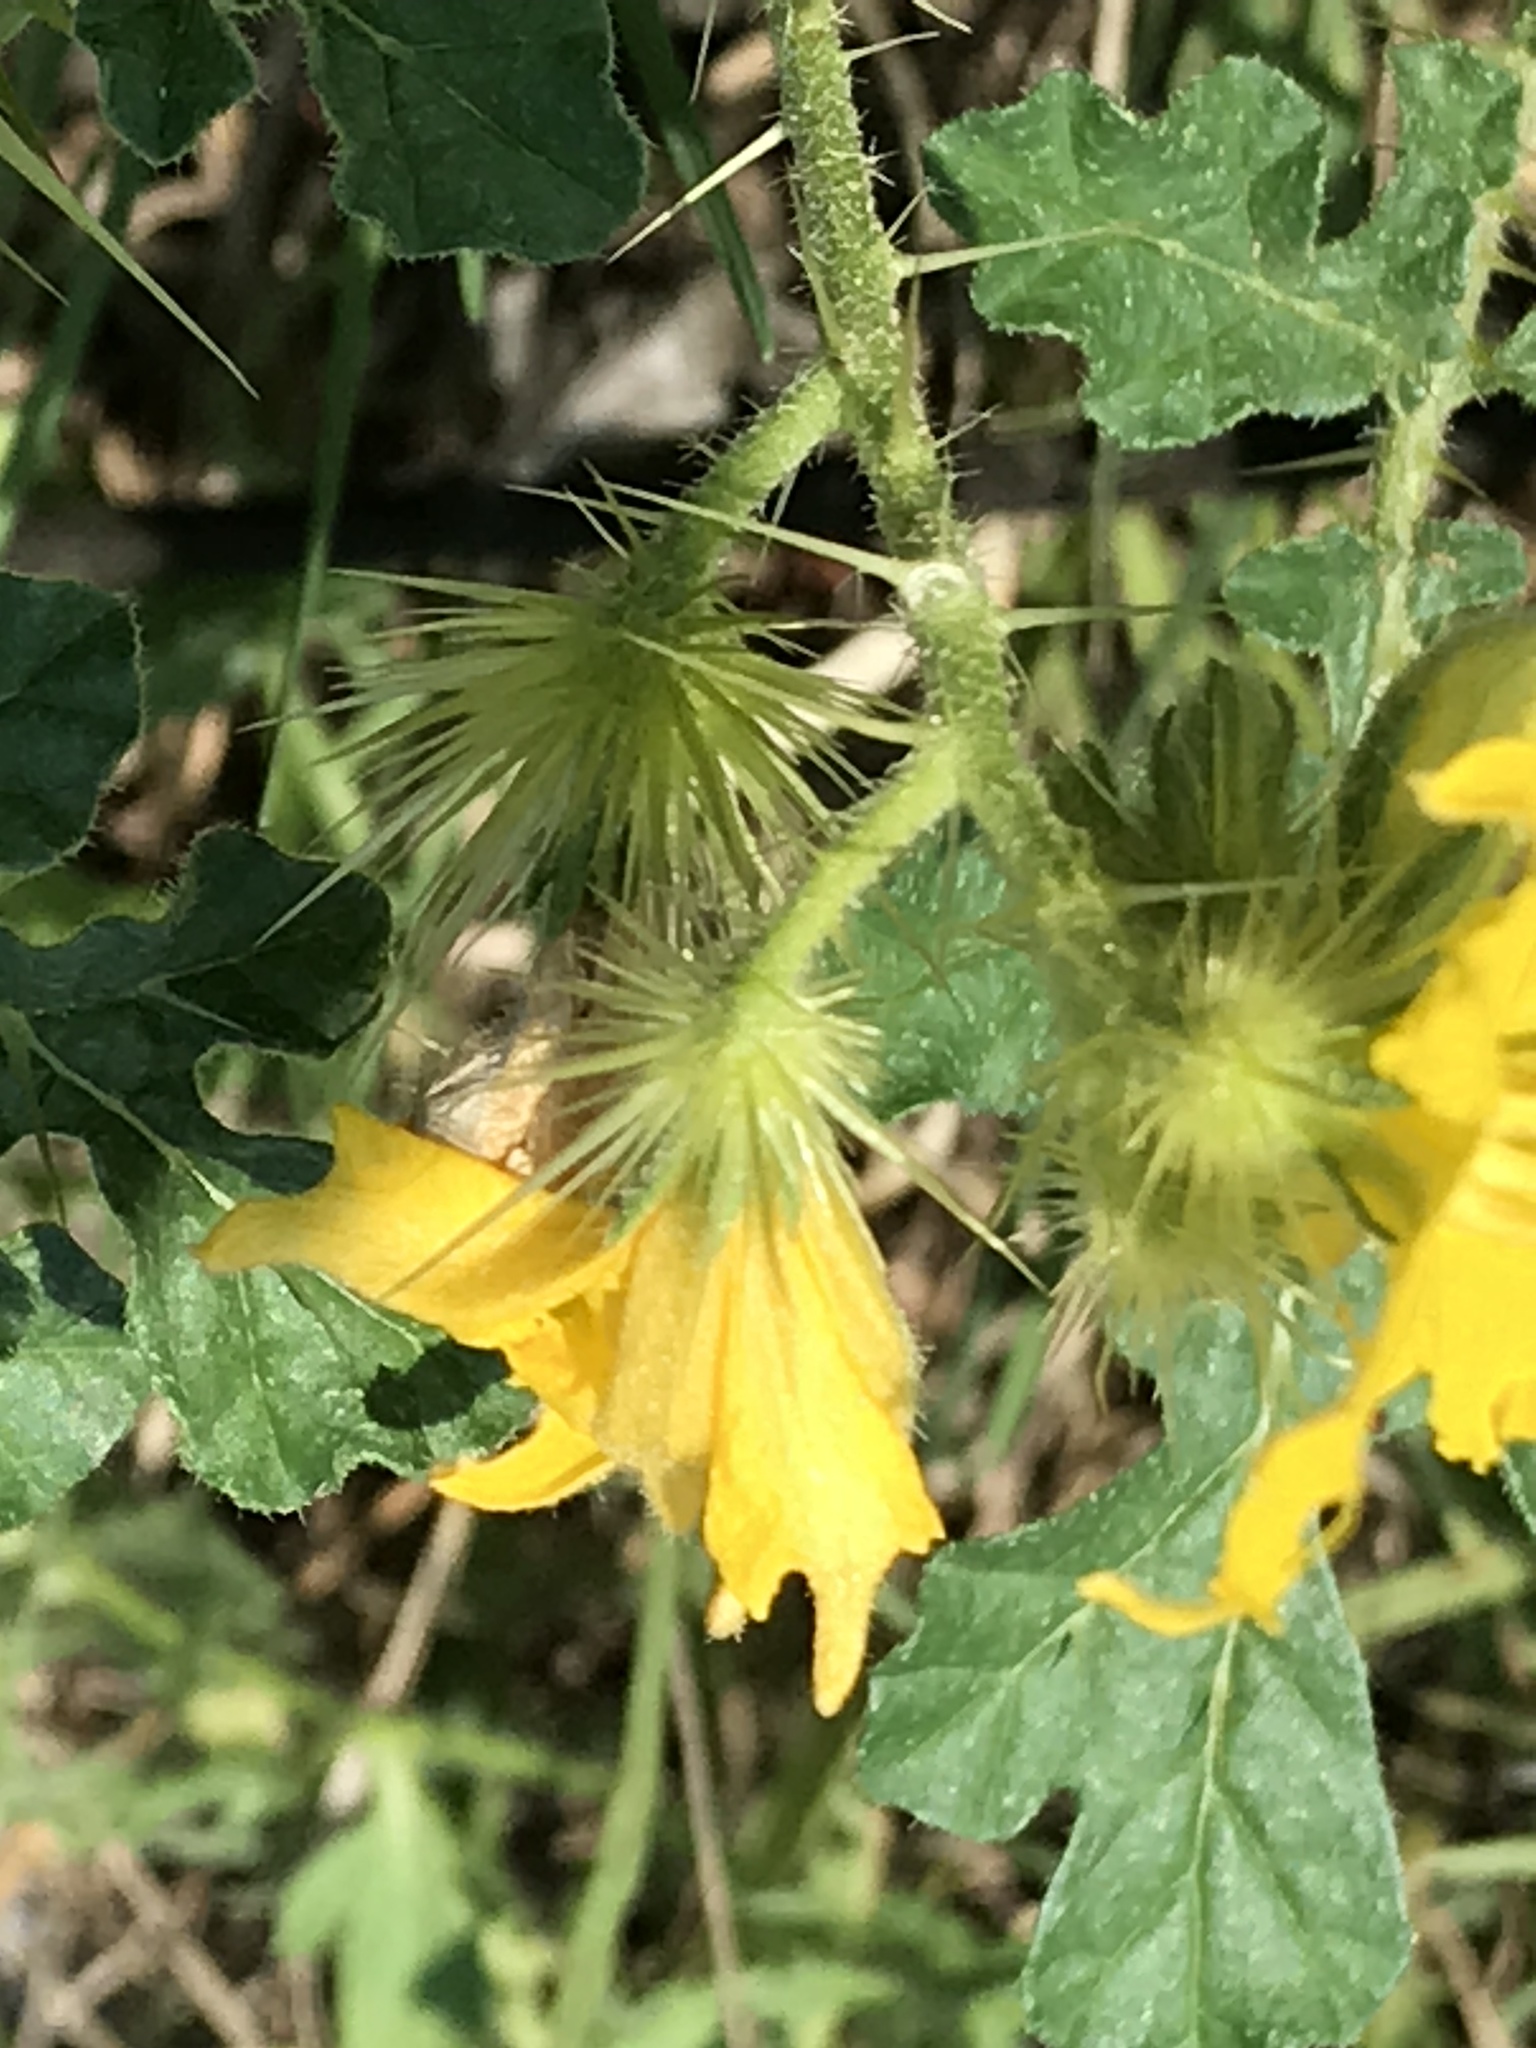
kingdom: Plantae
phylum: Tracheophyta
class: Magnoliopsida
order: Solanales
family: Solanaceae
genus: Solanum
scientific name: Solanum angustifolium
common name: Buffalobur nightshade
